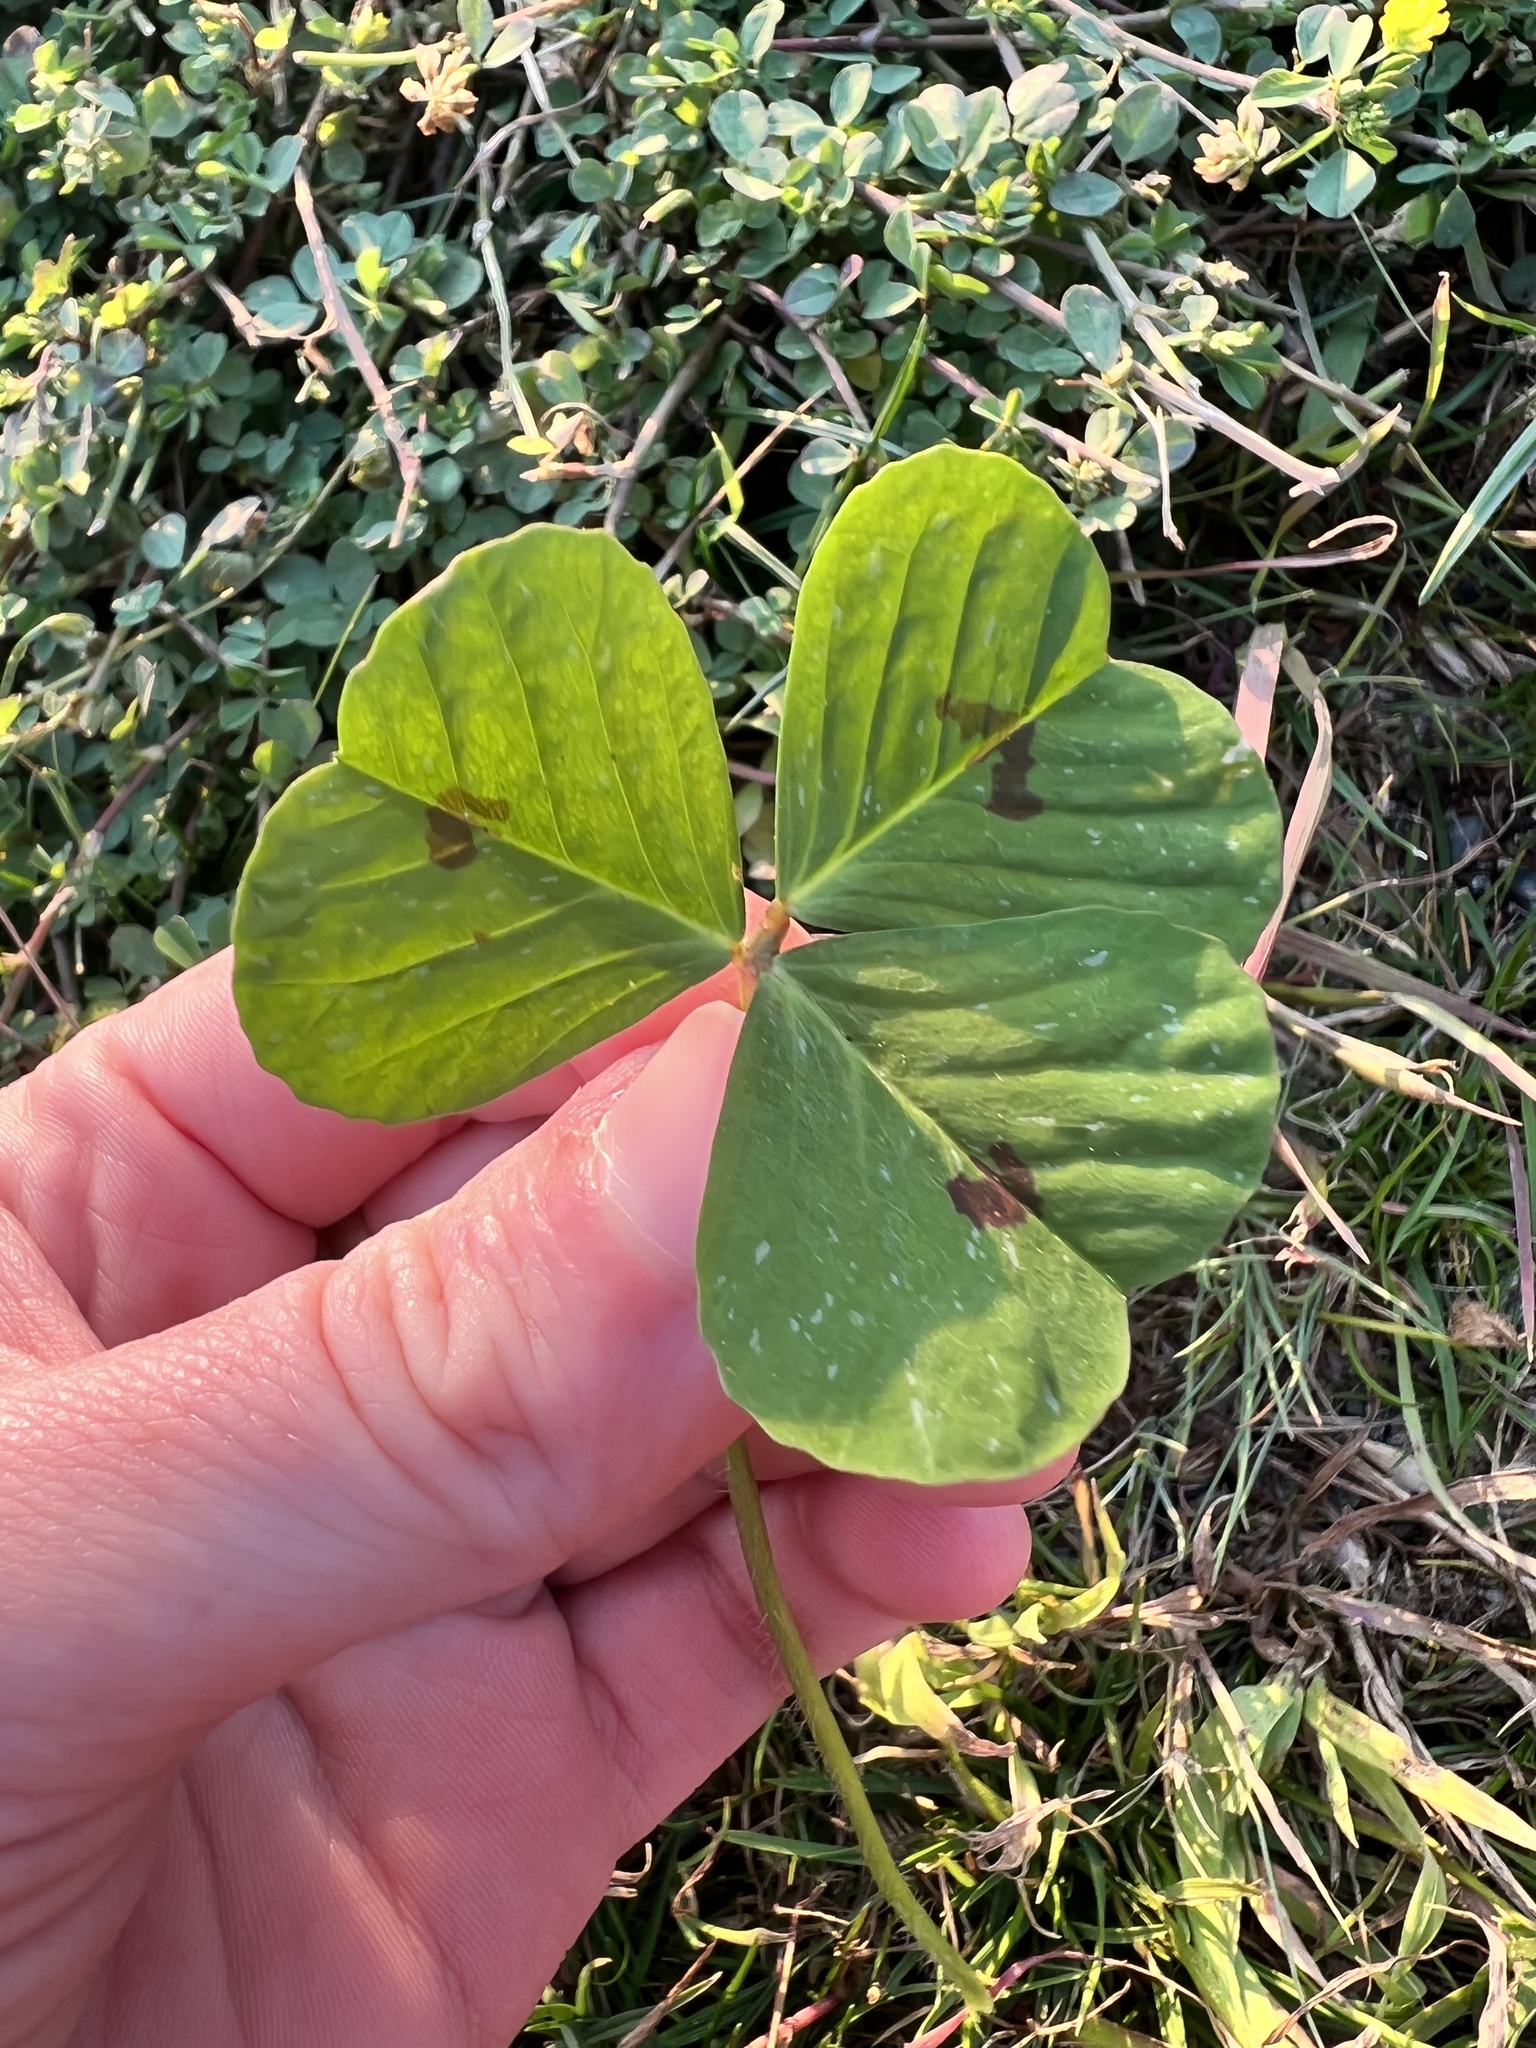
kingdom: Plantae
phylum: Tracheophyta
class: Magnoliopsida
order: Fabales
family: Fabaceae
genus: Medicago
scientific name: Medicago arabica
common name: Spotted medick
